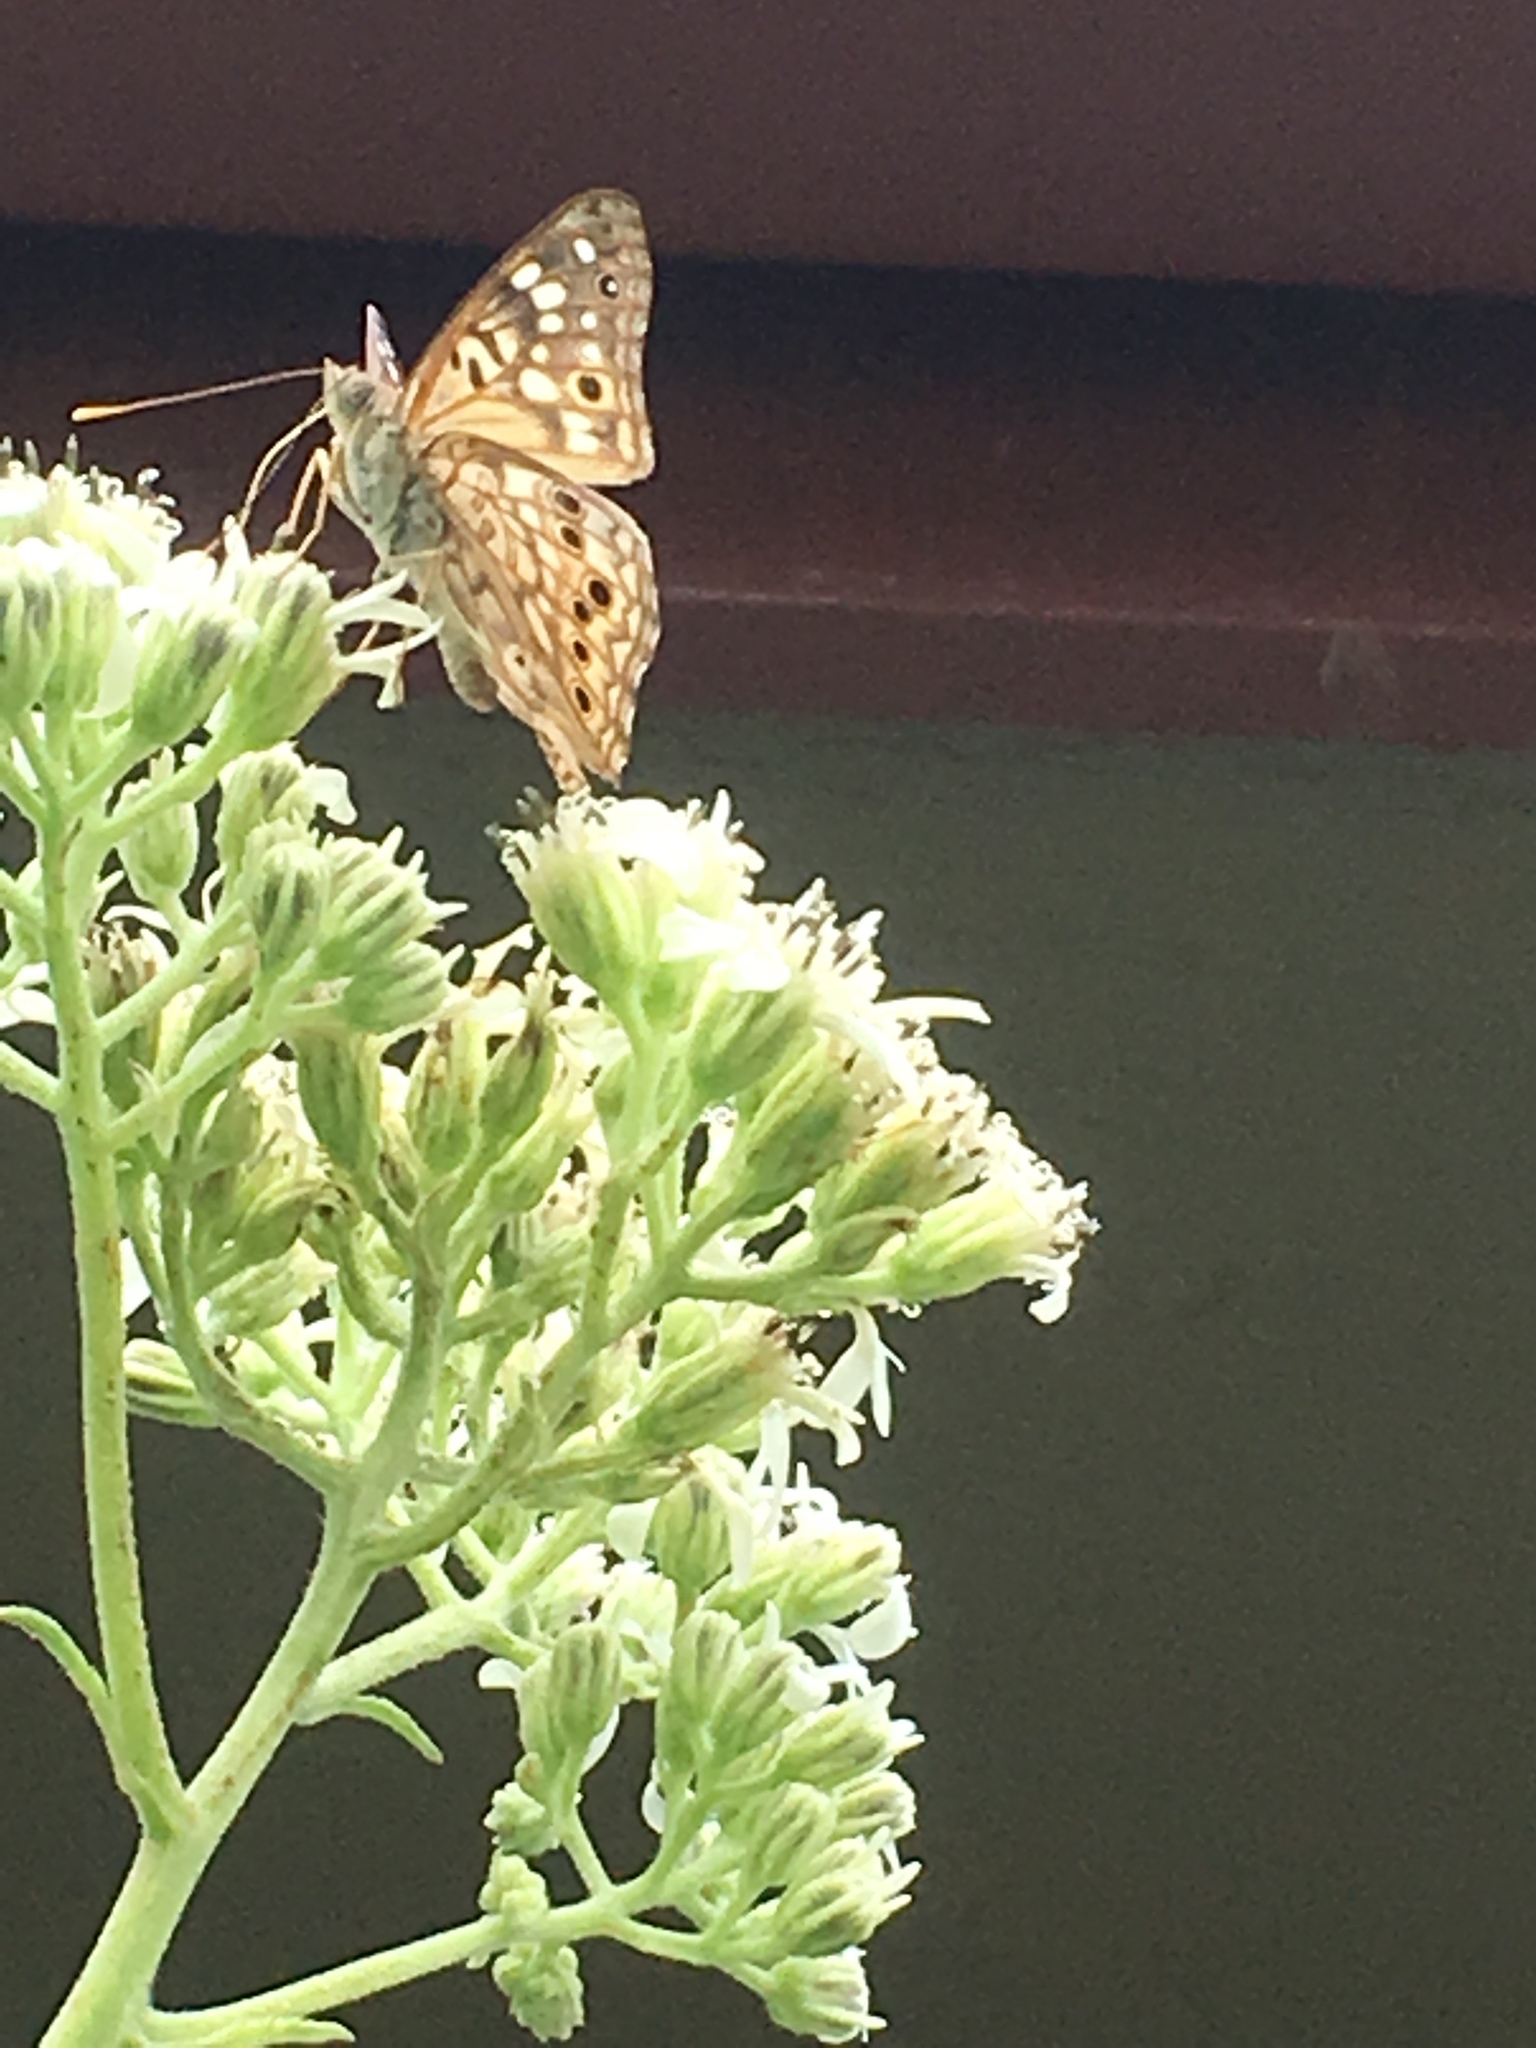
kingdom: Animalia
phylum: Arthropoda
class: Insecta
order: Lepidoptera
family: Nymphalidae
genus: Asterocampa
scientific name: Asterocampa celtis
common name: Hackberry emperor
